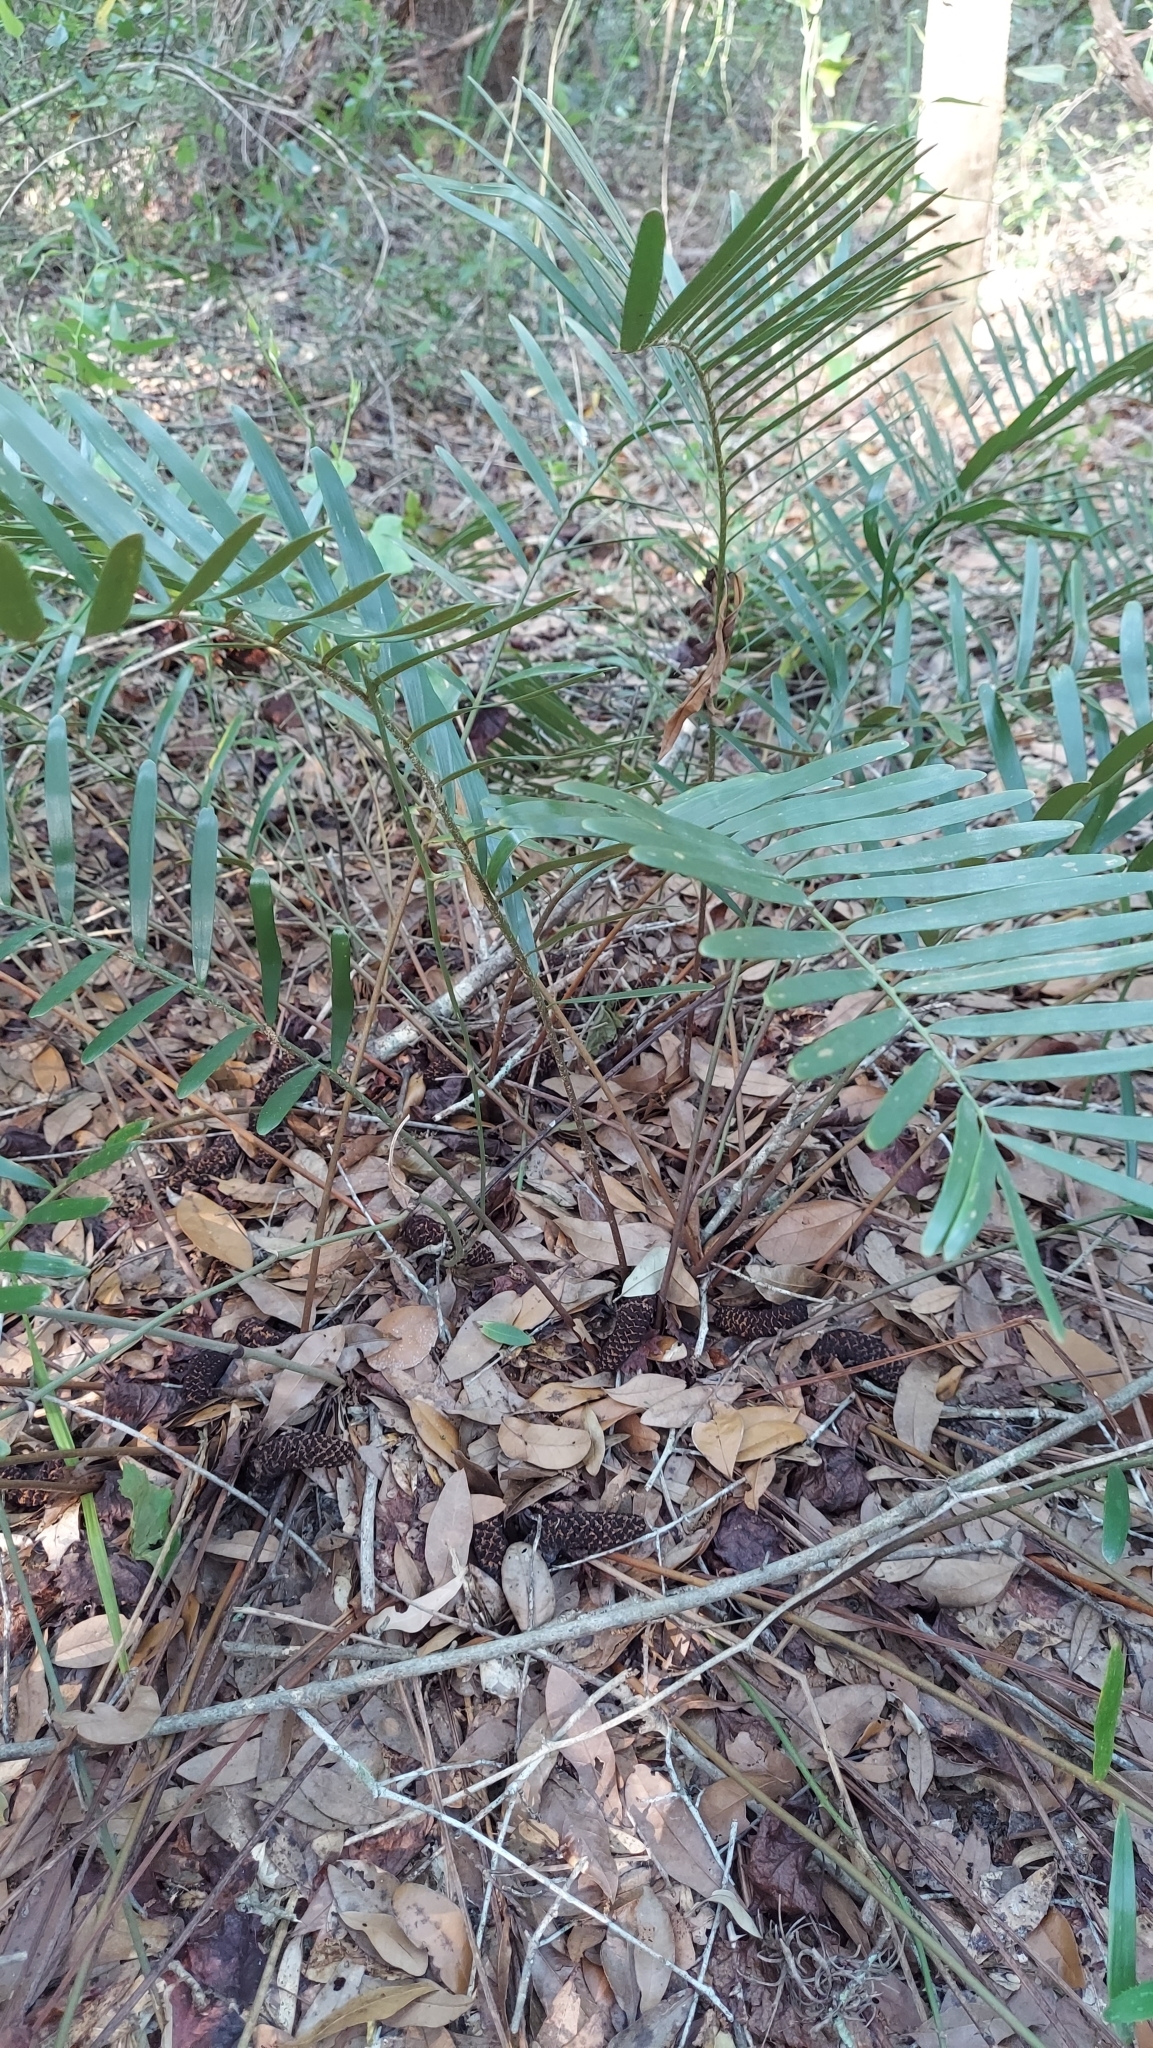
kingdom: Plantae
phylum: Tracheophyta
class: Cycadopsida
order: Cycadales
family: Zamiaceae
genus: Zamia
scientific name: Zamia integrifolia
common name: Florida arrowroot
